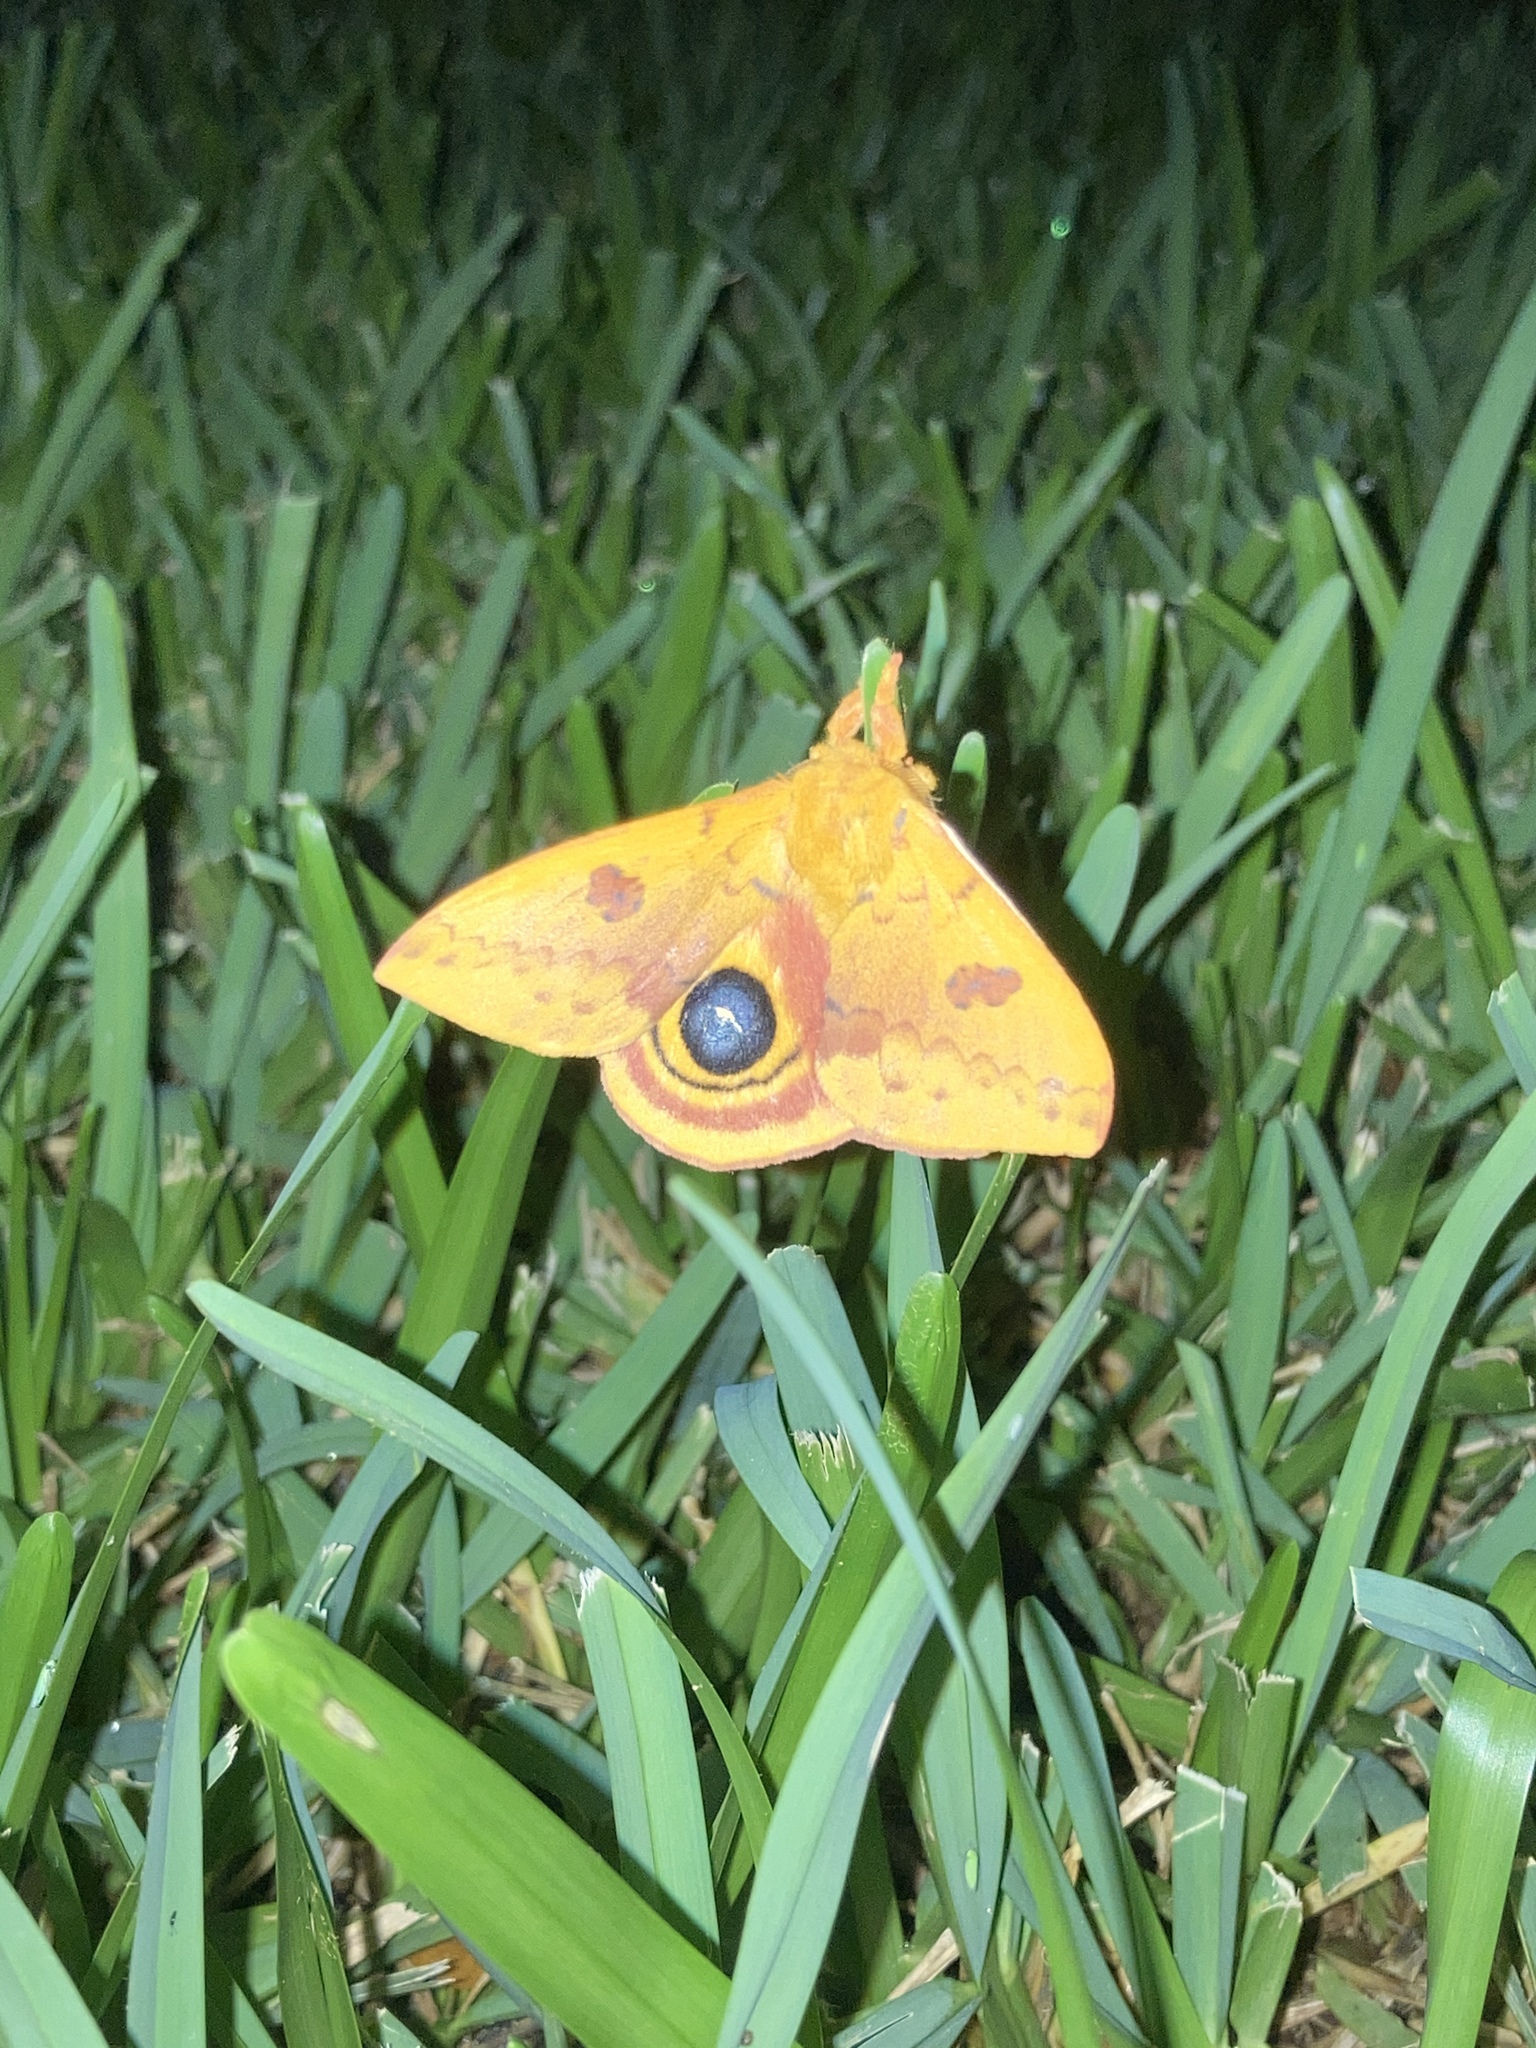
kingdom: Animalia
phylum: Arthropoda
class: Insecta
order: Lepidoptera
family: Saturniidae
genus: Automeris
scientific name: Automeris io
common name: Io moth
